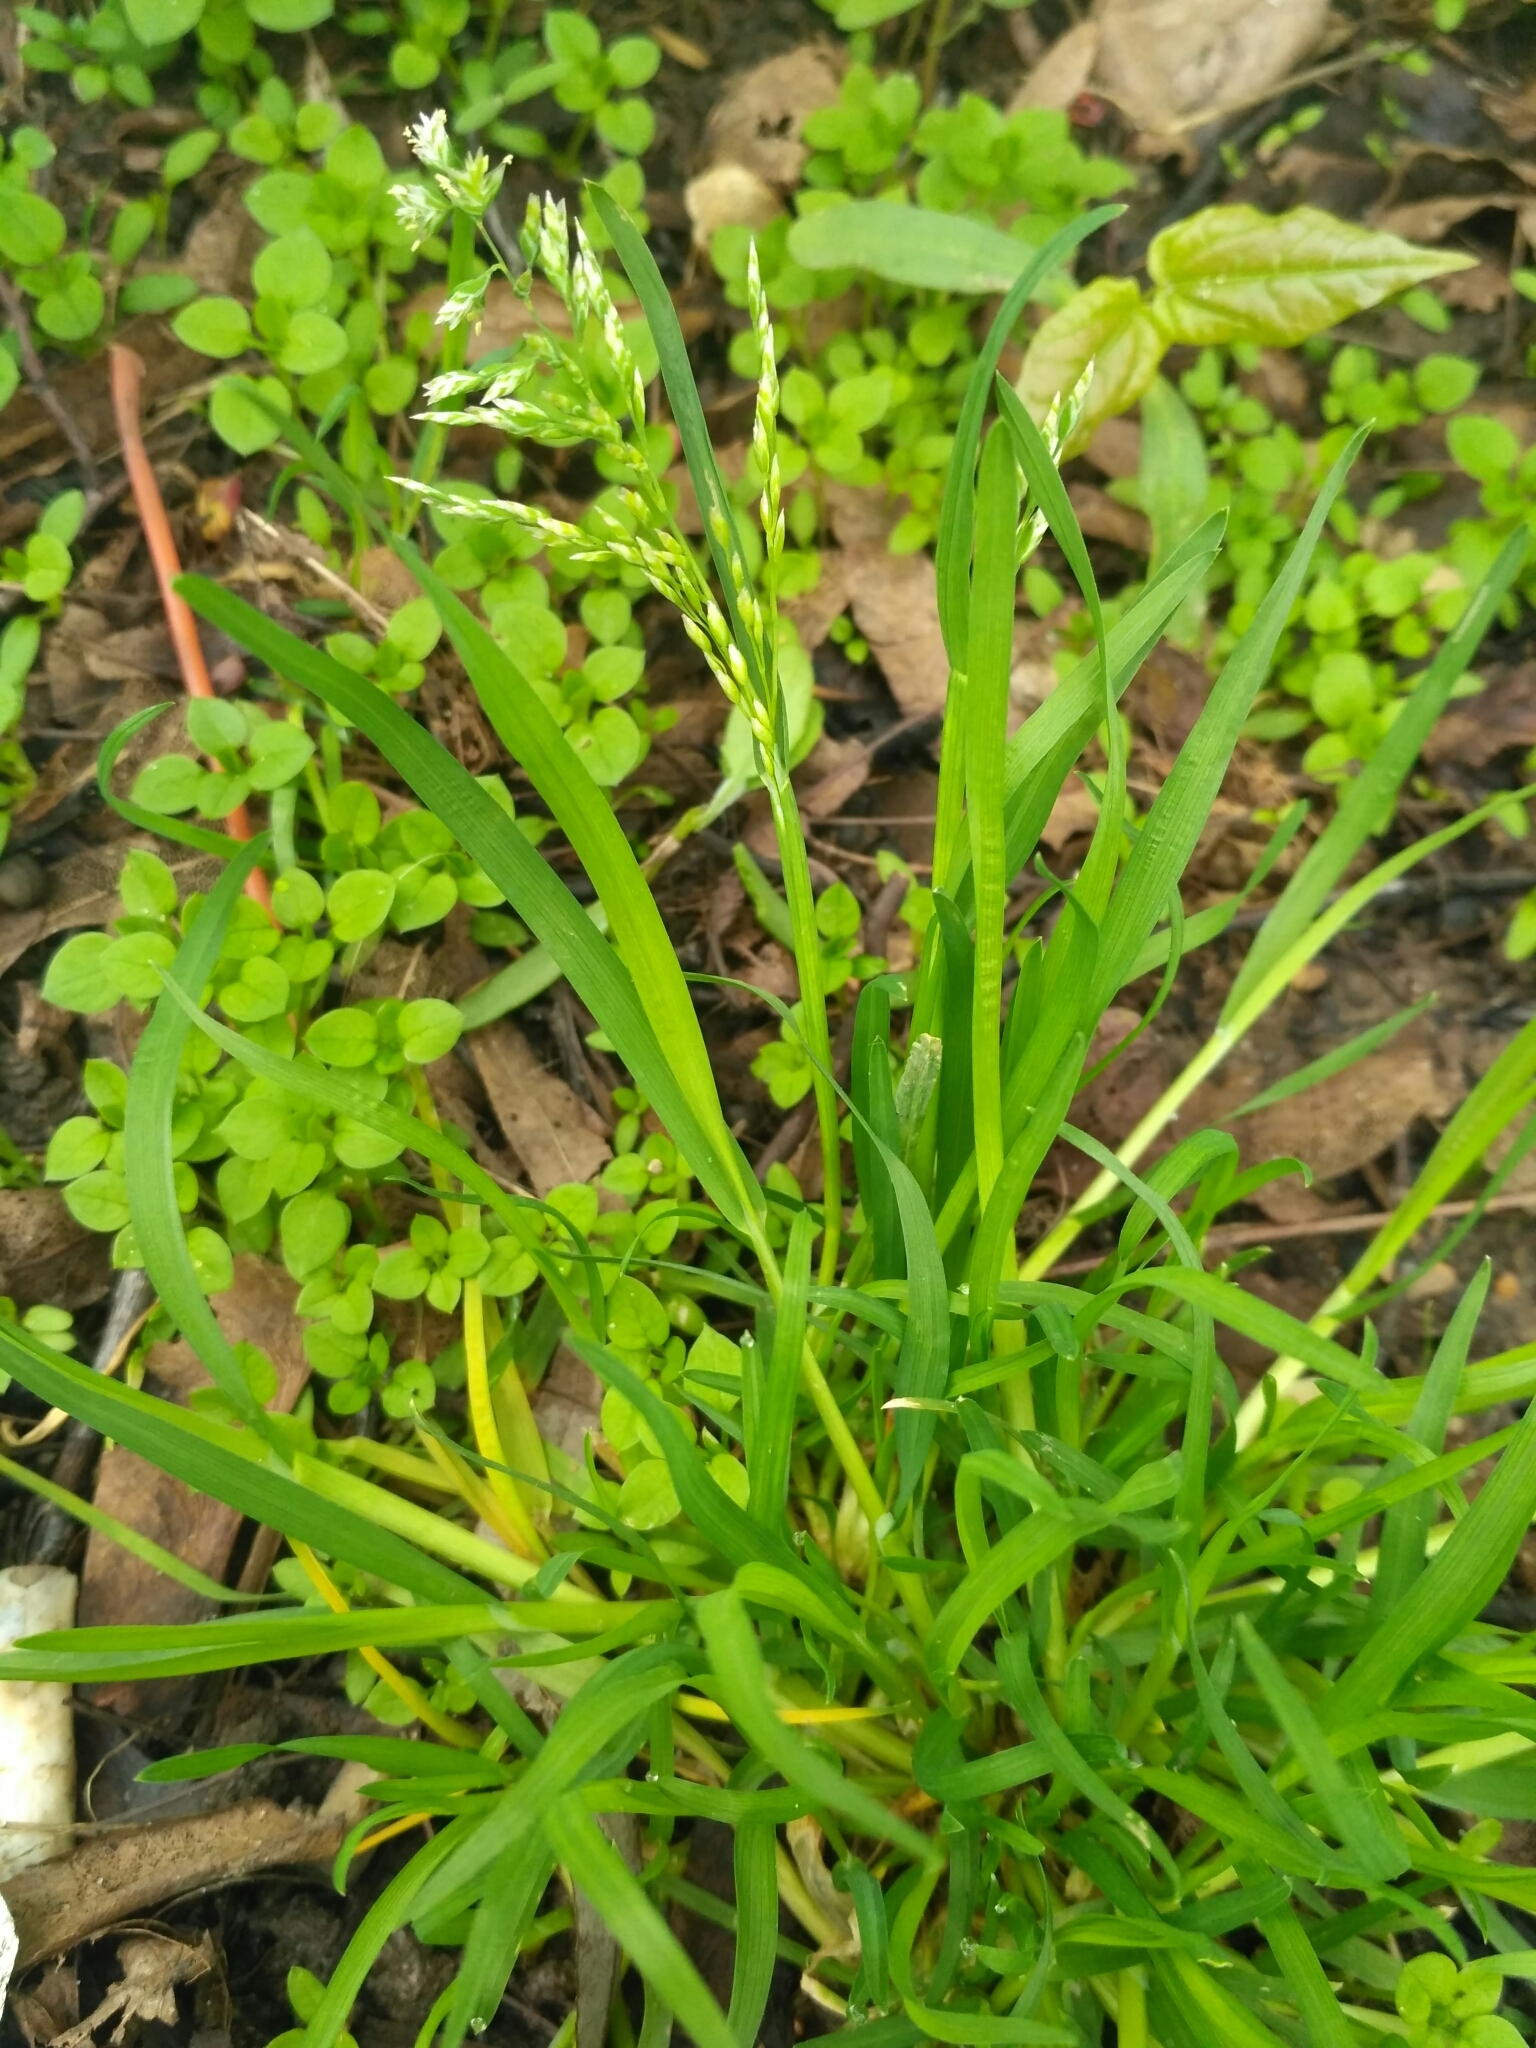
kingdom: Plantae
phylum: Tracheophyta
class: Liliopsida
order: Poales
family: Poaceae
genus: Poa
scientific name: Poa annua
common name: Annual bluegrass
